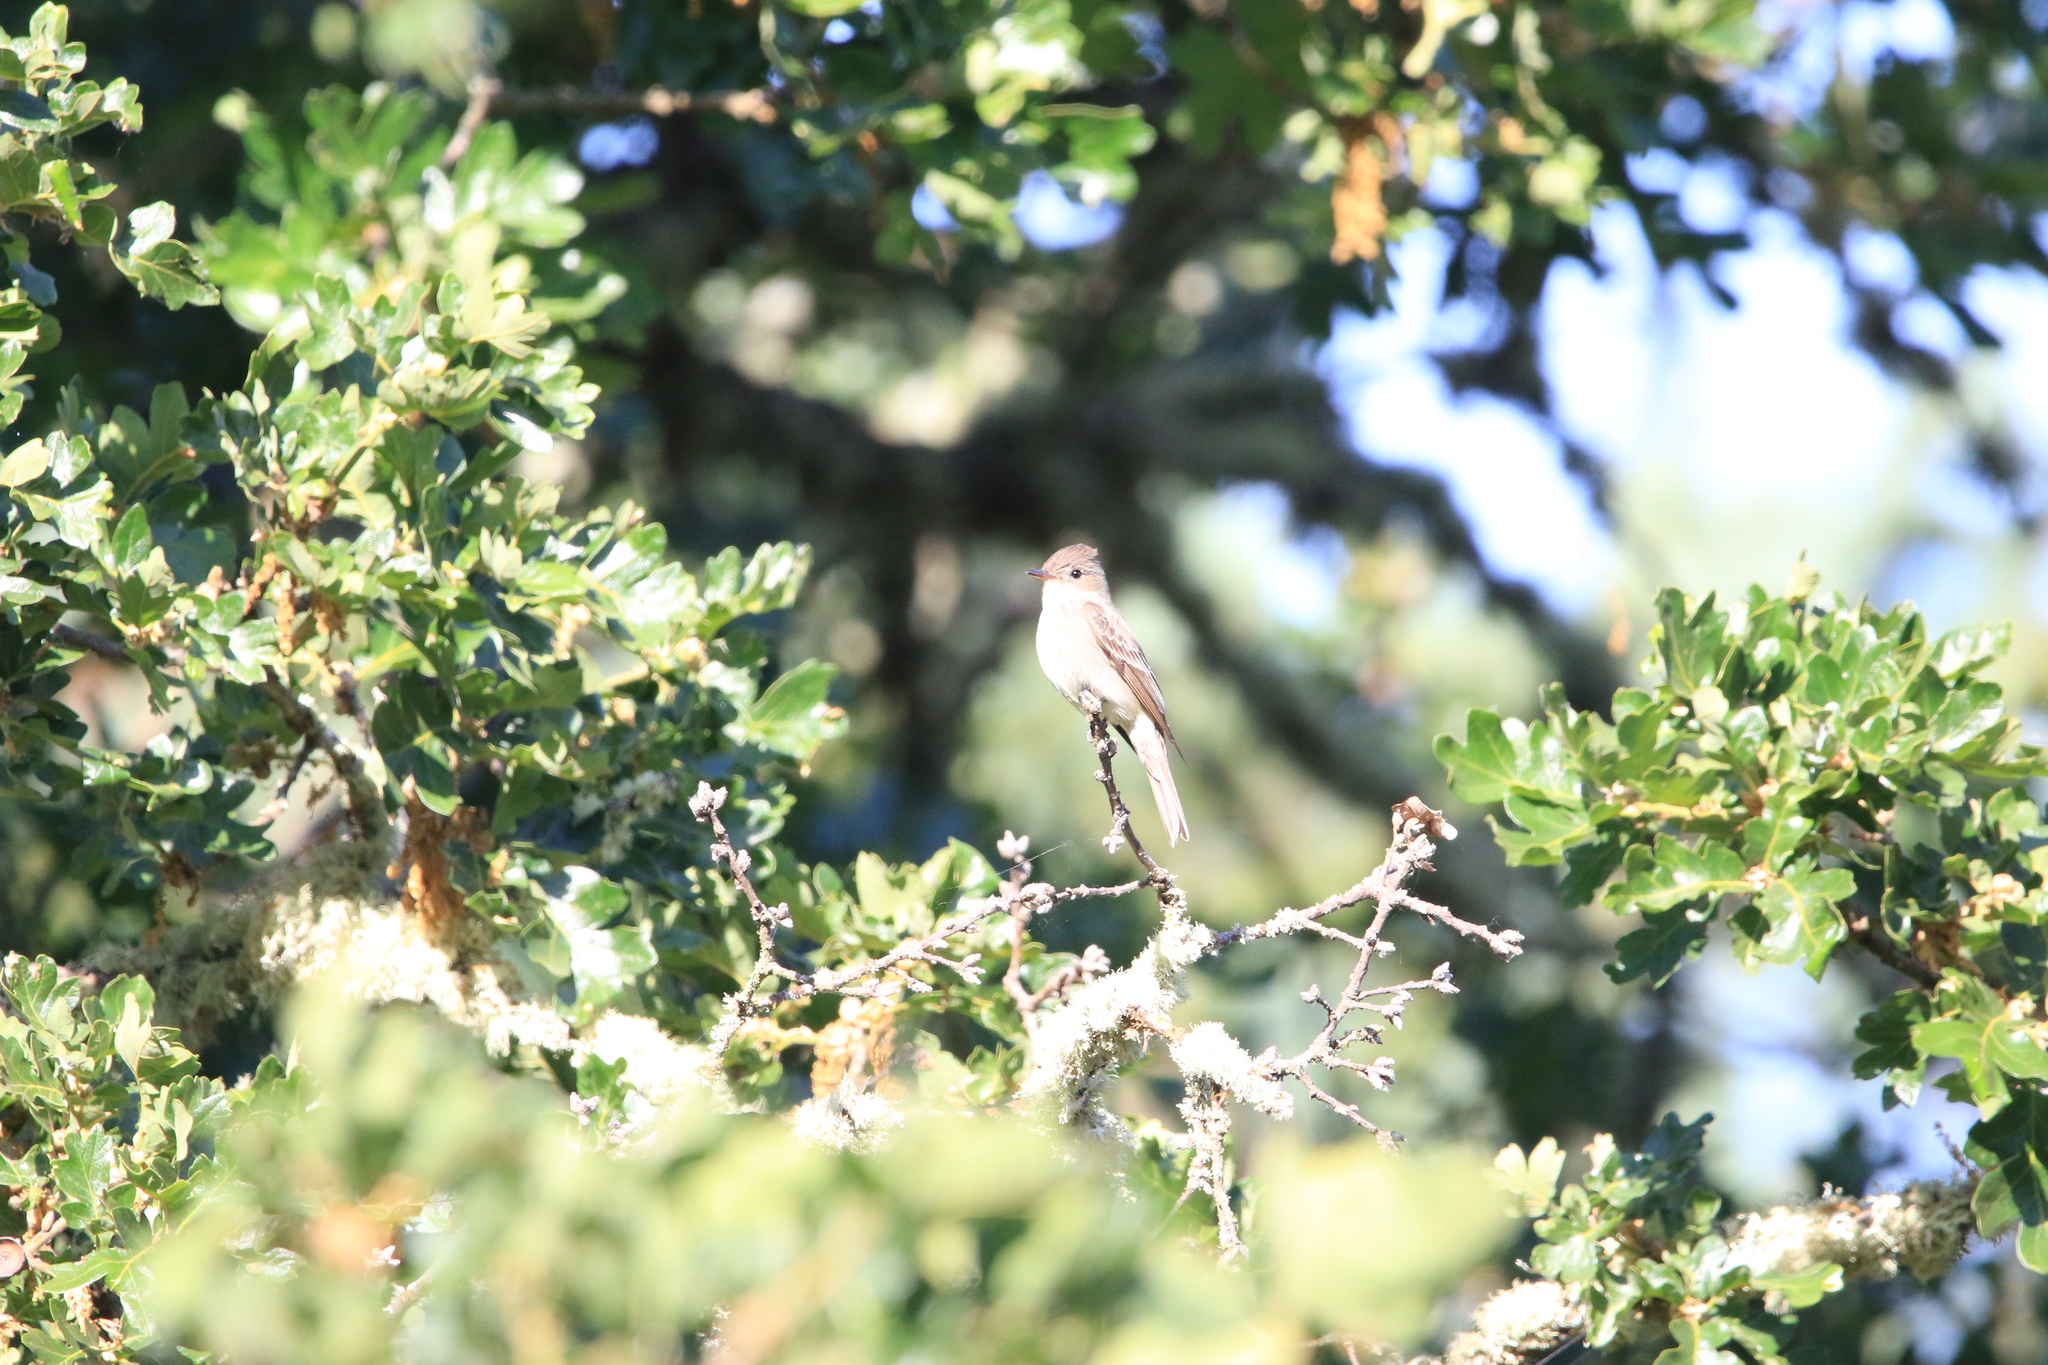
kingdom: Animalia
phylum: Chordata
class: Aves
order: Passeriformes
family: Tyrannidae
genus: Contopus
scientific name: Contopus sordidulus
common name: Western wood-pewee
